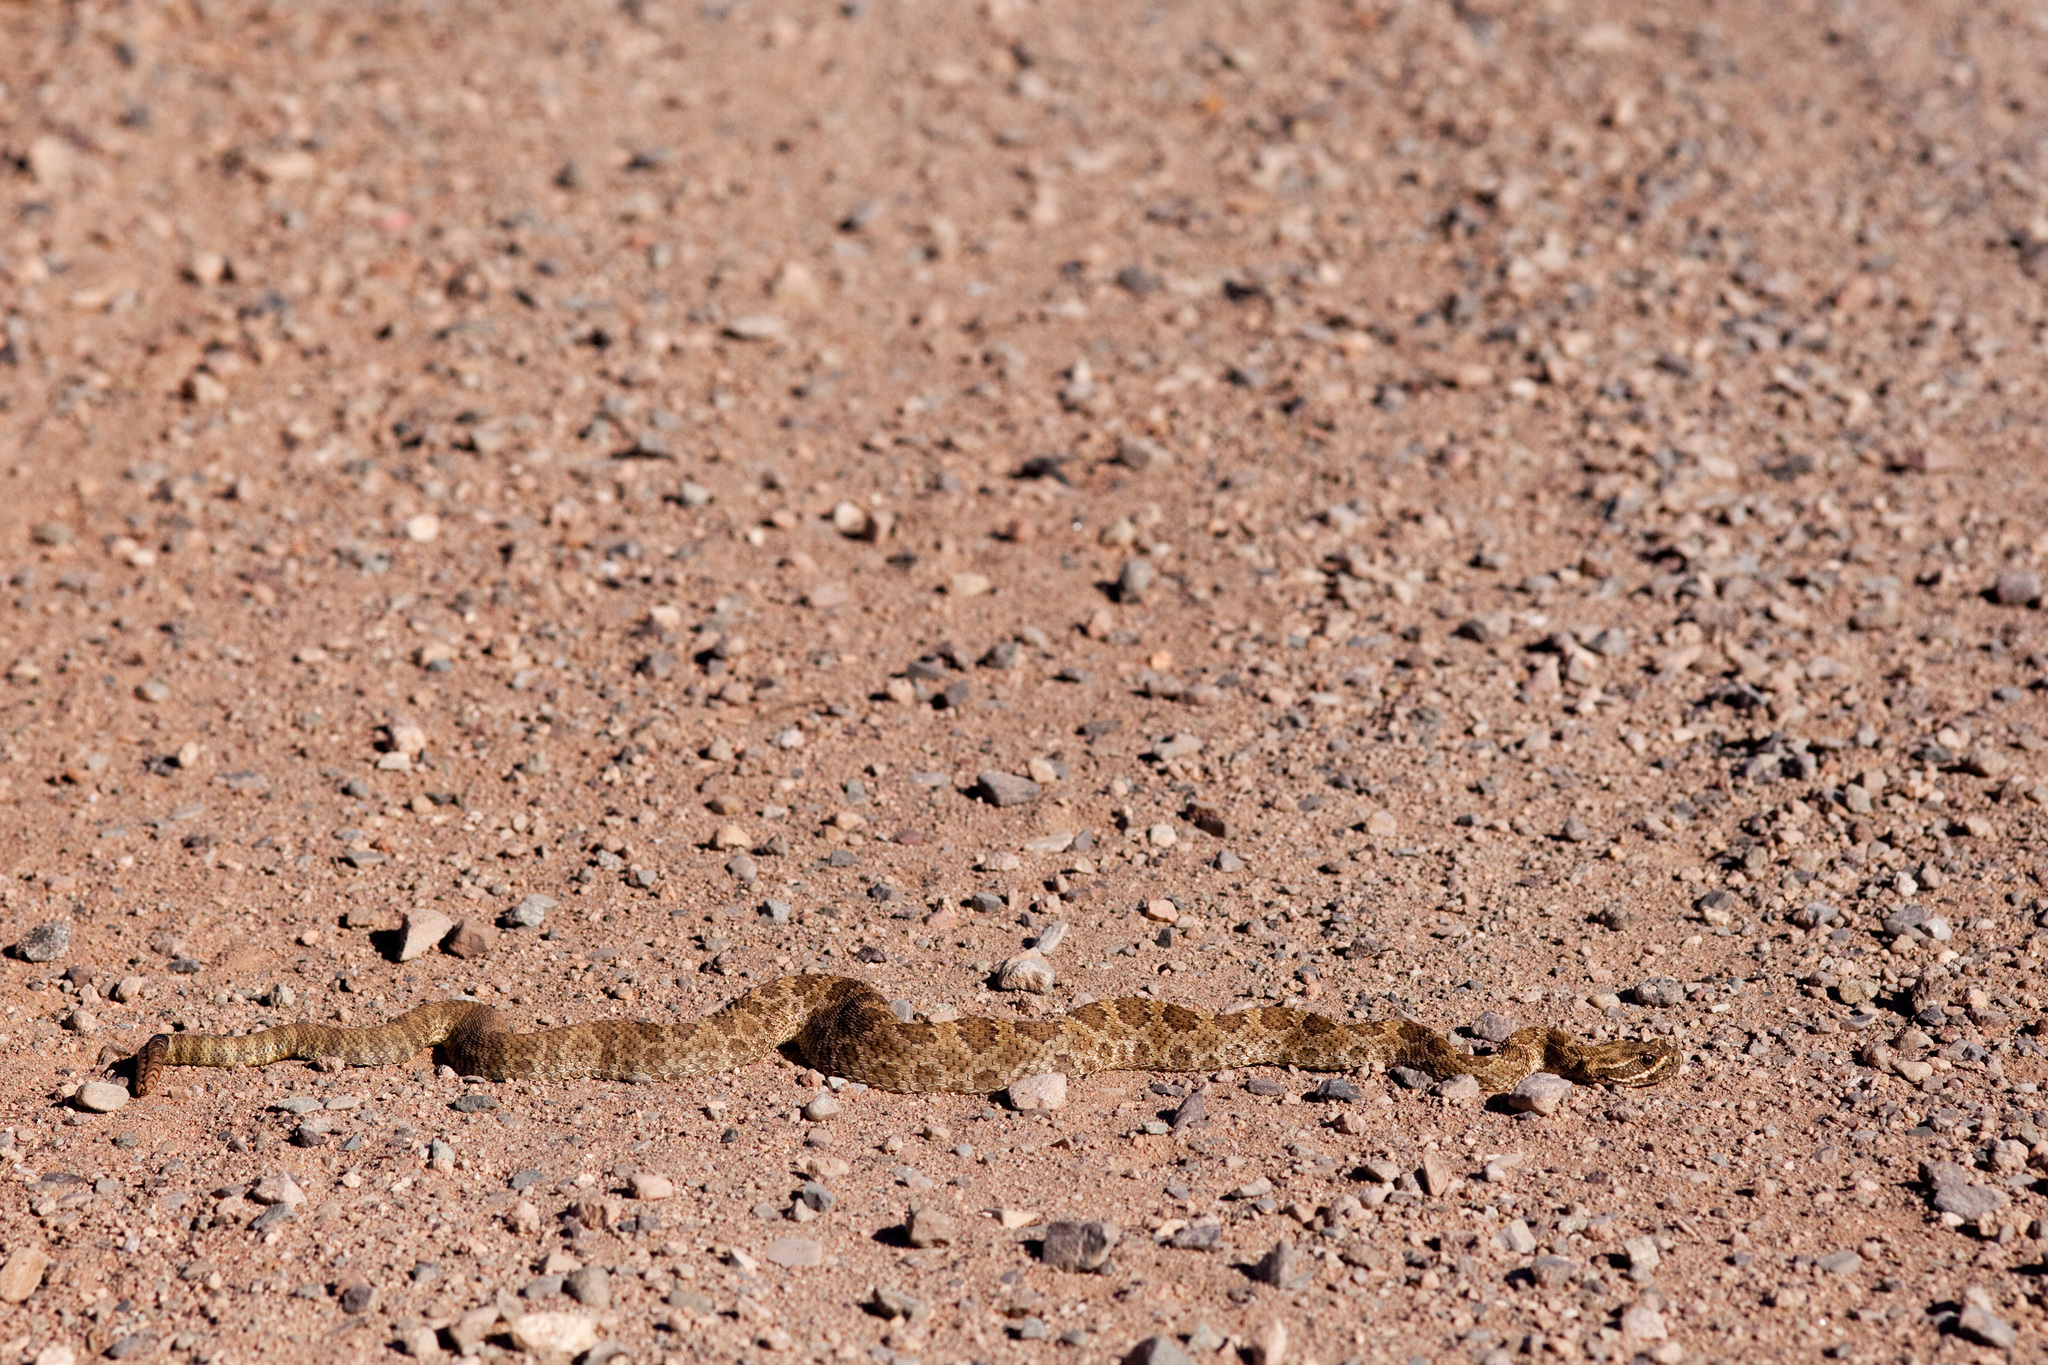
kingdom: Animalia
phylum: Chordata
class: Squamata
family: Viperidae
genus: Crotalus
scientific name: Crotalus viridis
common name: Prairie rattlesnake
